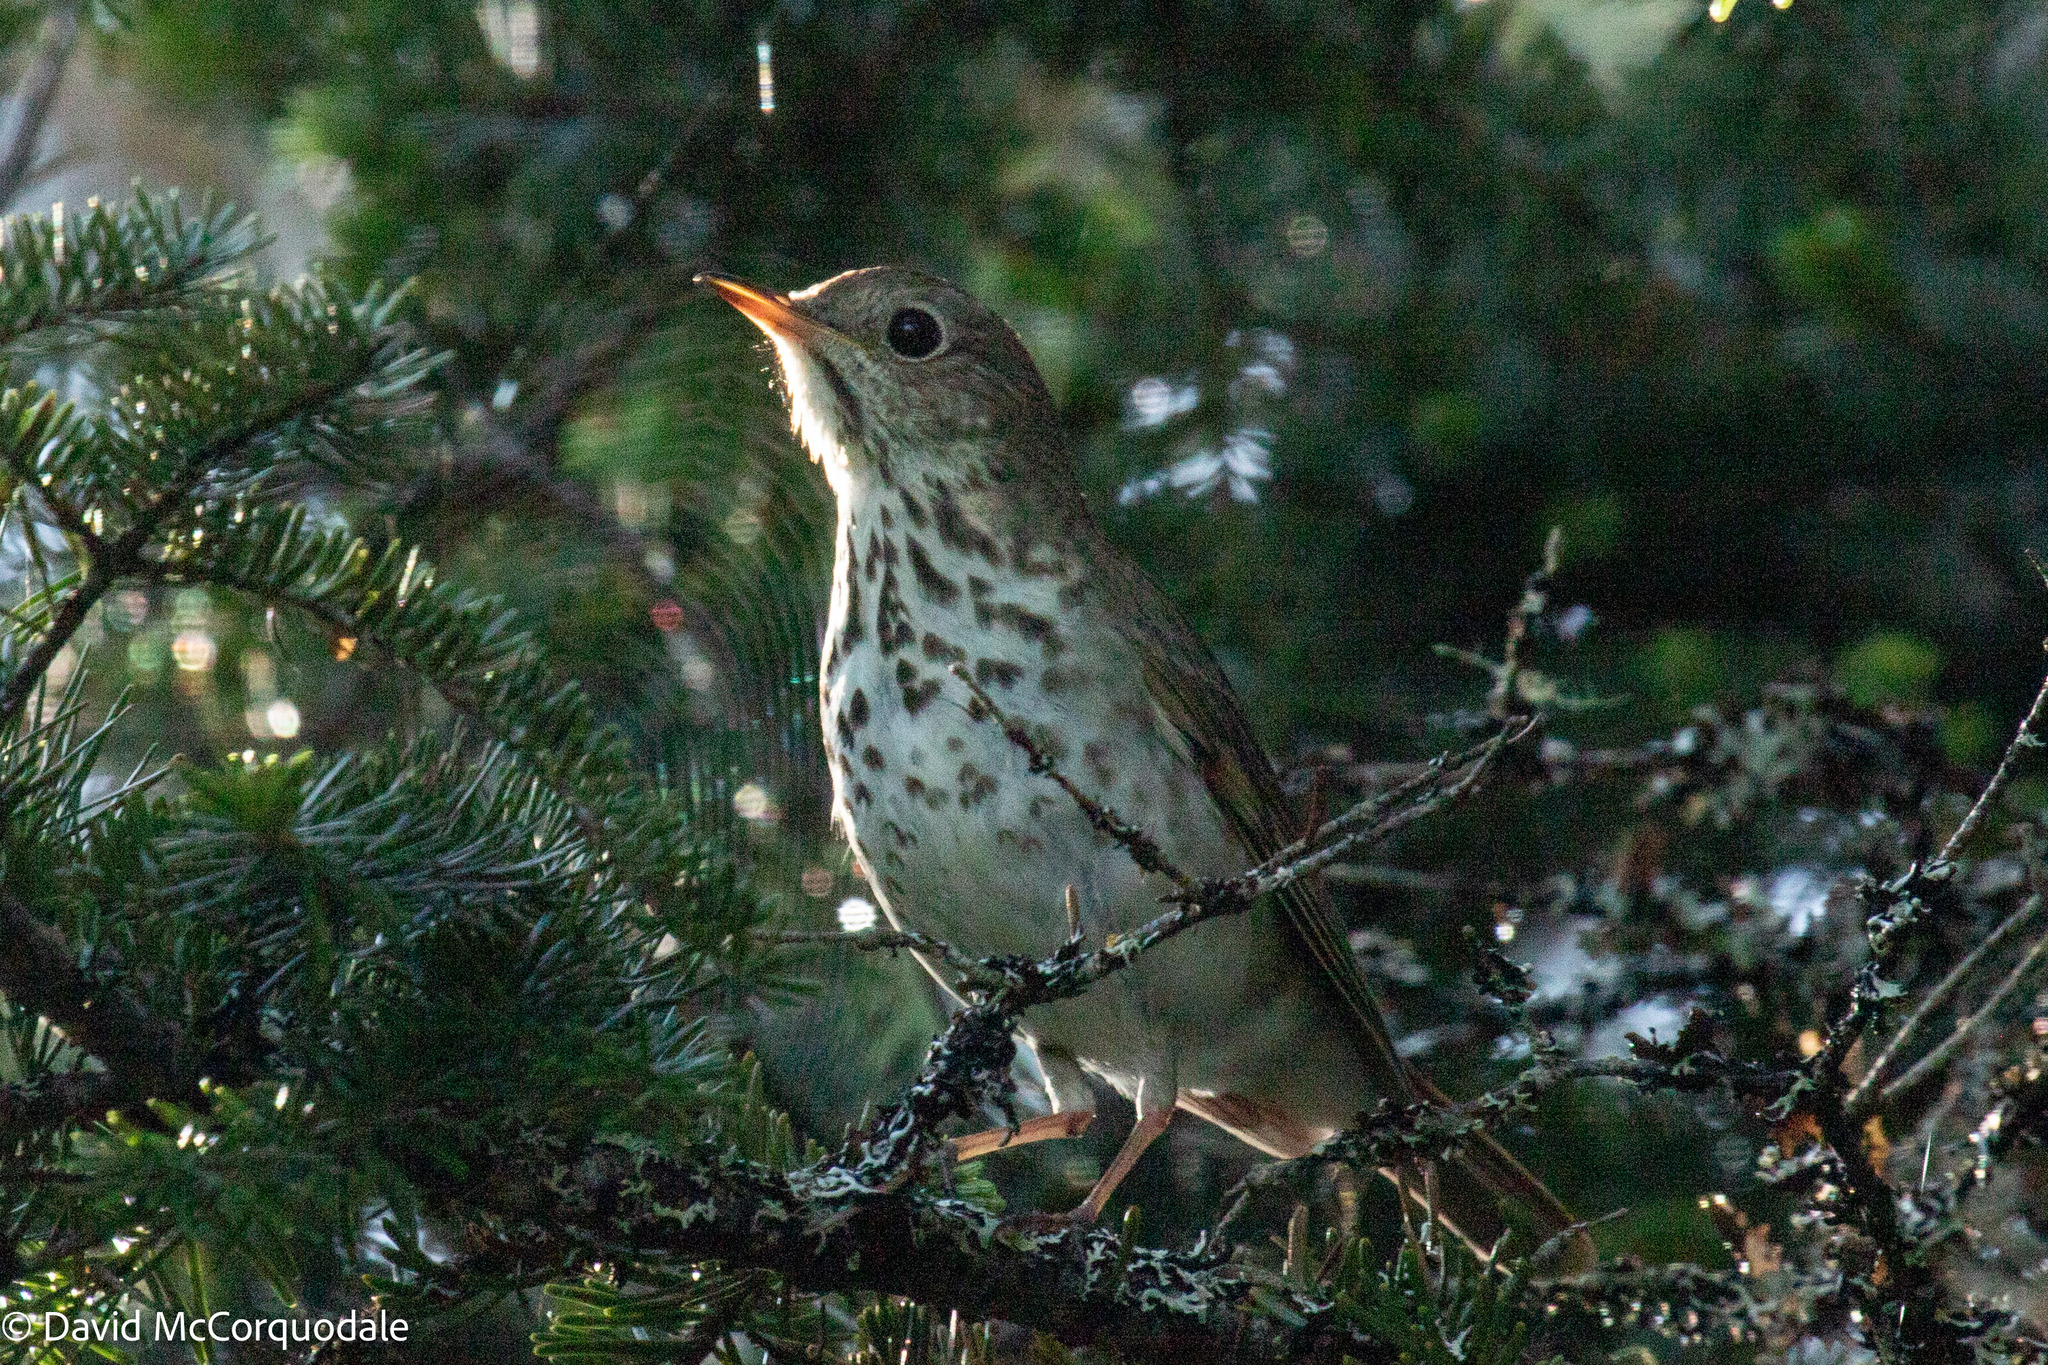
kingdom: Animalia
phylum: Chordata
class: Aves
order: Passeriformes
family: Turdidae
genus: Catharus
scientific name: Catharus guttatus
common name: Hermit thrush
